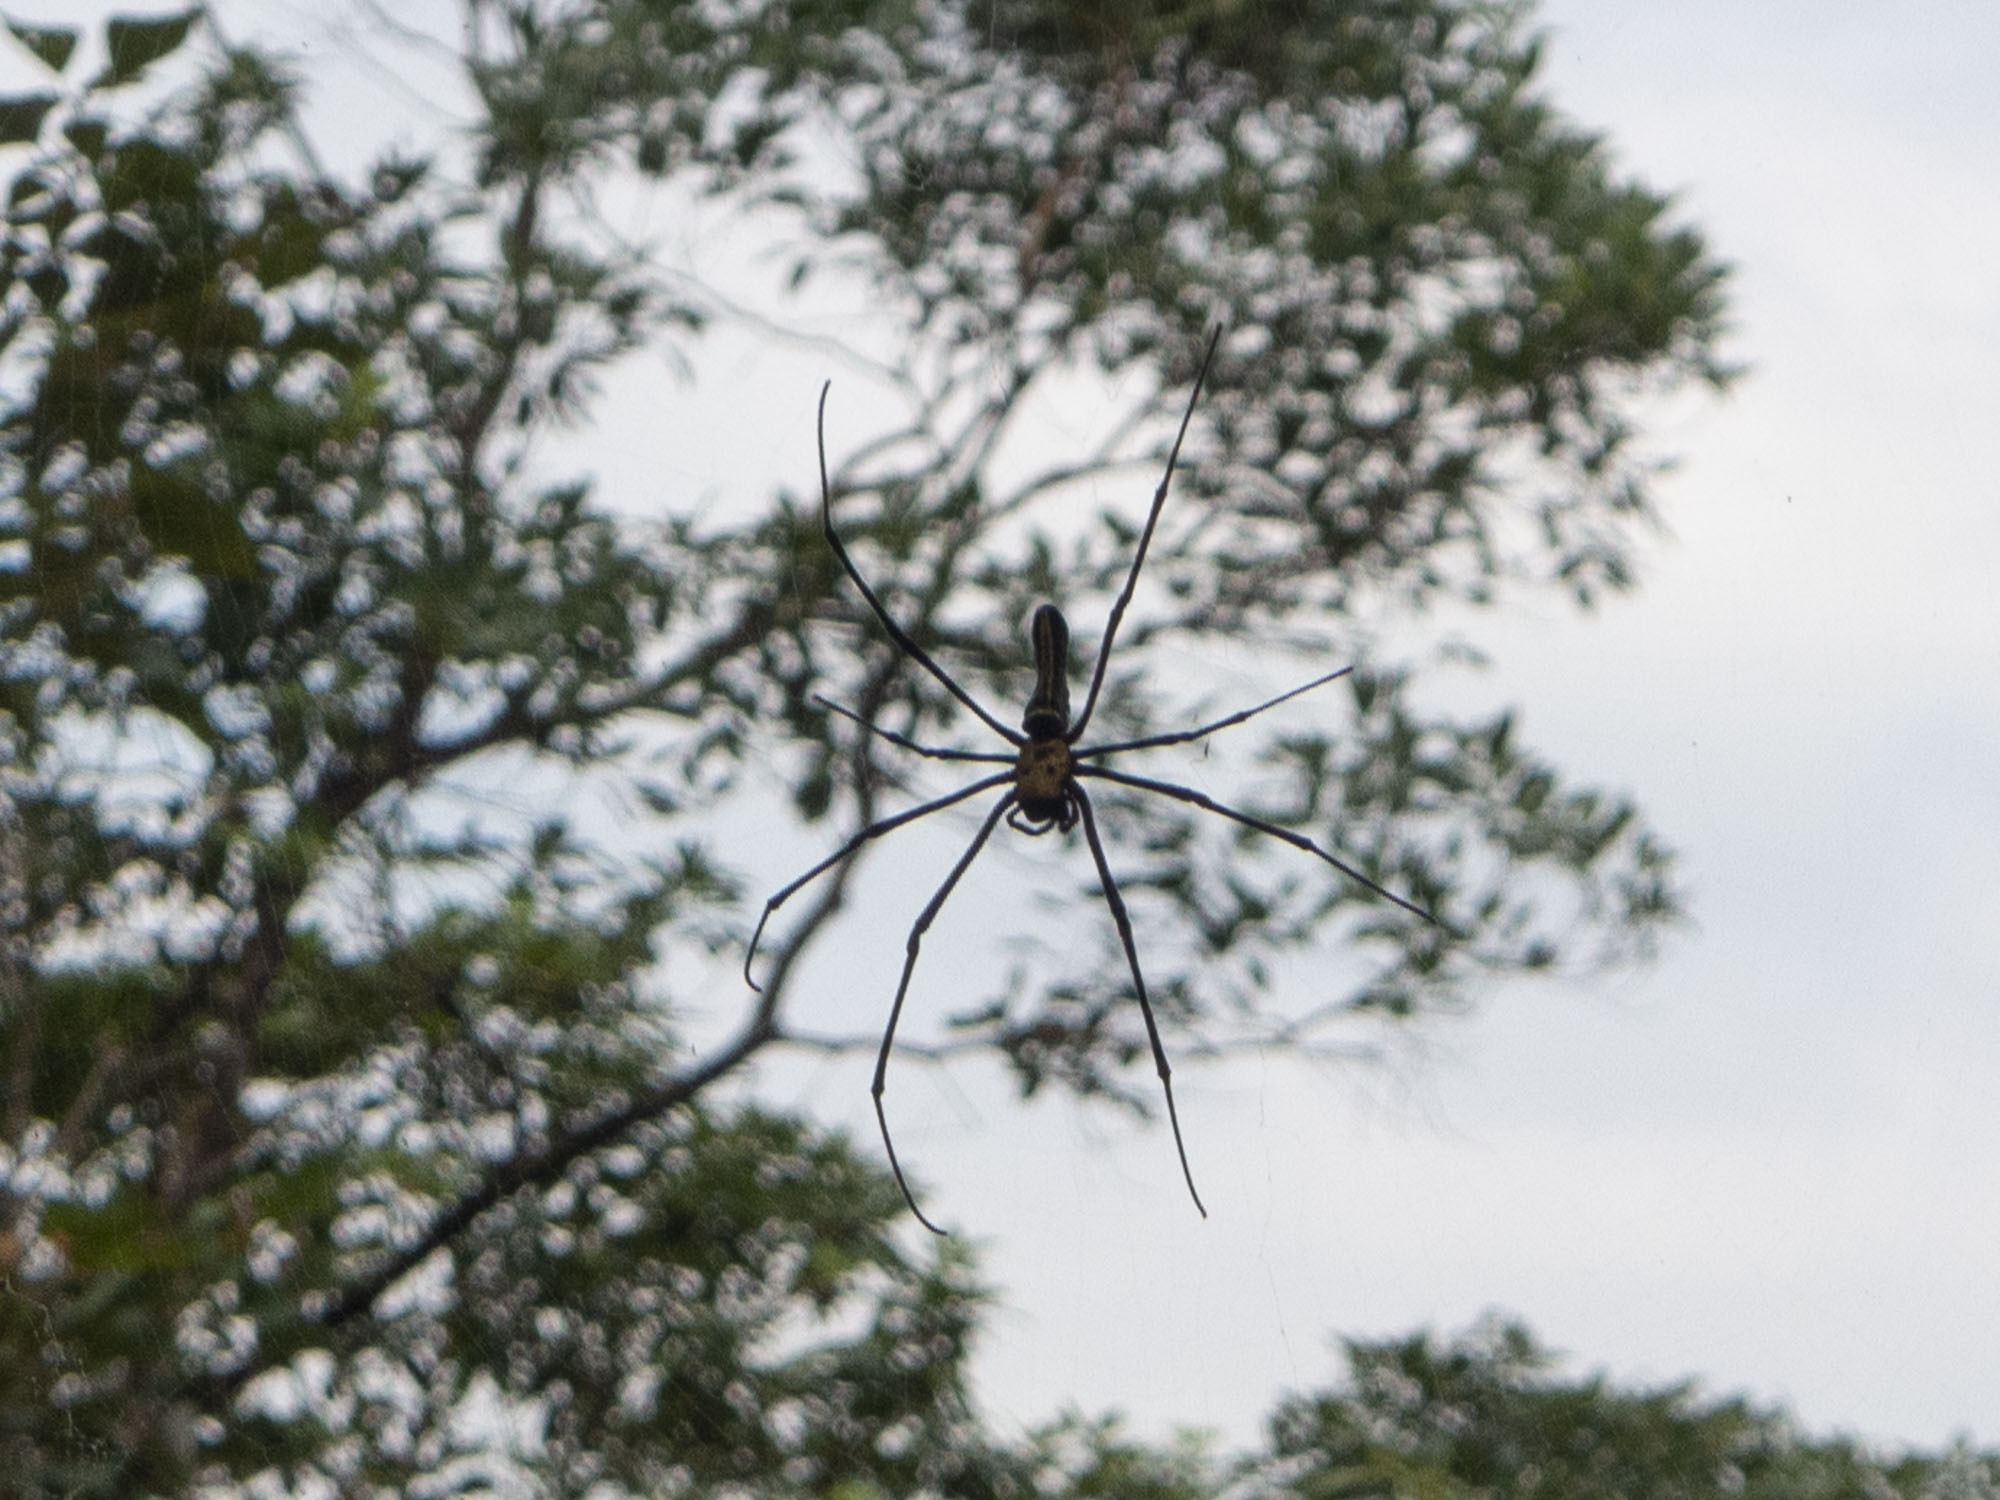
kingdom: Animalia
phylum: Arthropoda
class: Arachnida
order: Araneae
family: Araneidae
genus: Nephila
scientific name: Nephila pilipes
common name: Giant golden orb weaver
